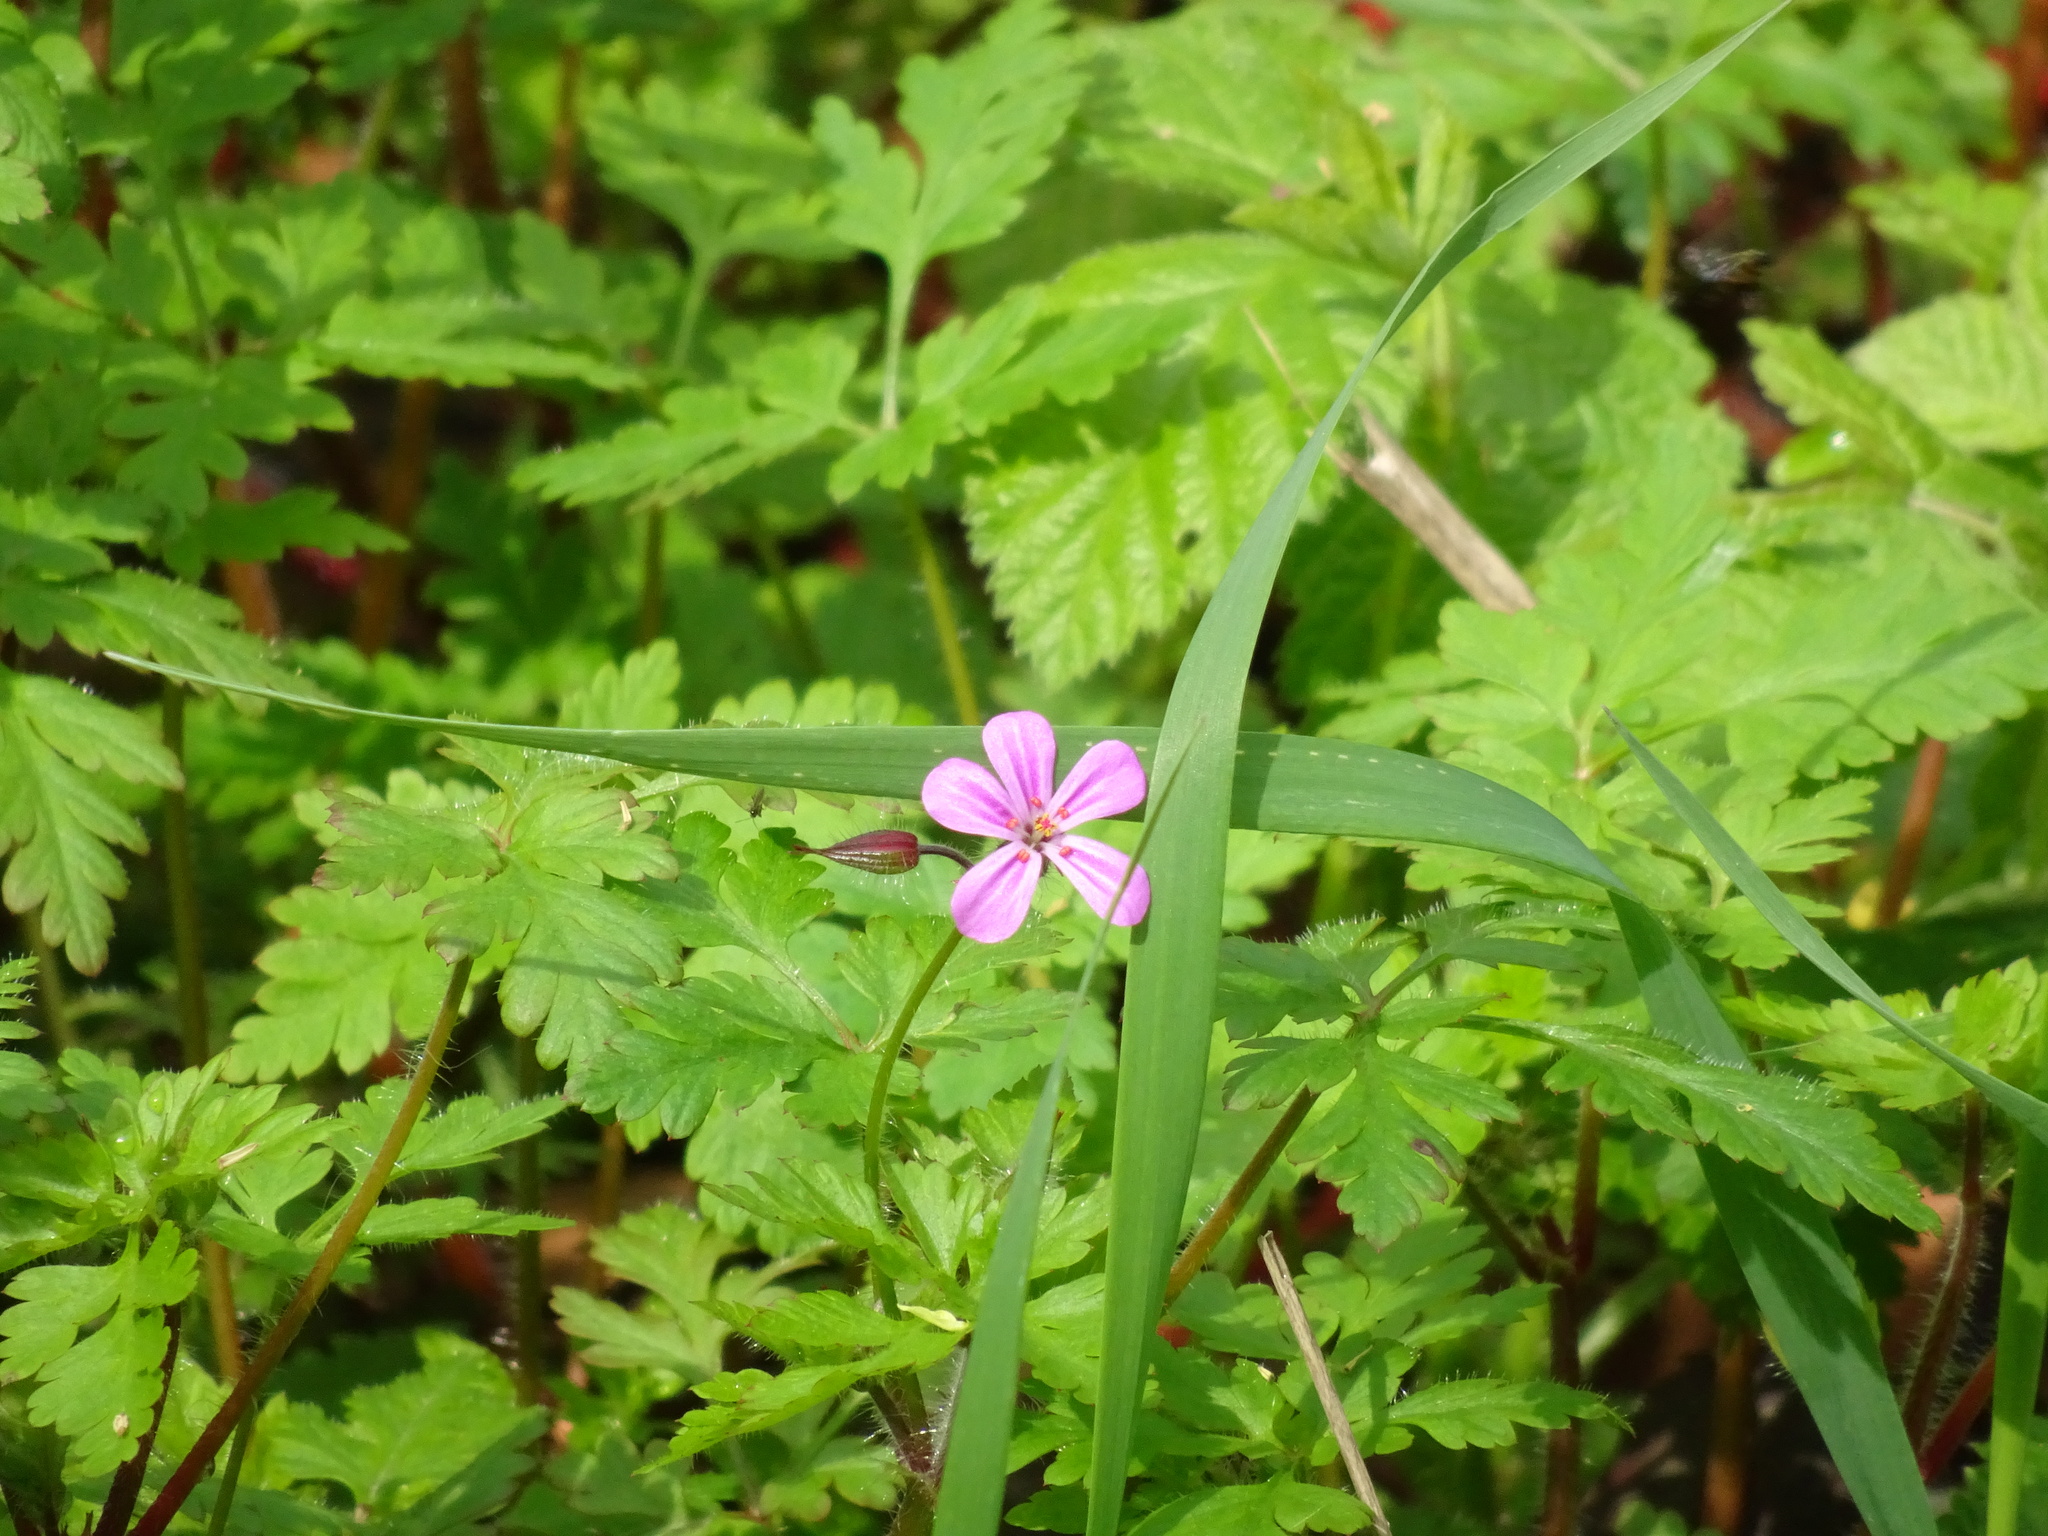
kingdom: Plantae
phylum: Tracheophyta
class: Magnoliopsida
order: Geraniales
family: Geraniaceae
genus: Geranium
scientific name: Geranium robertianum
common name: Herb-robert
